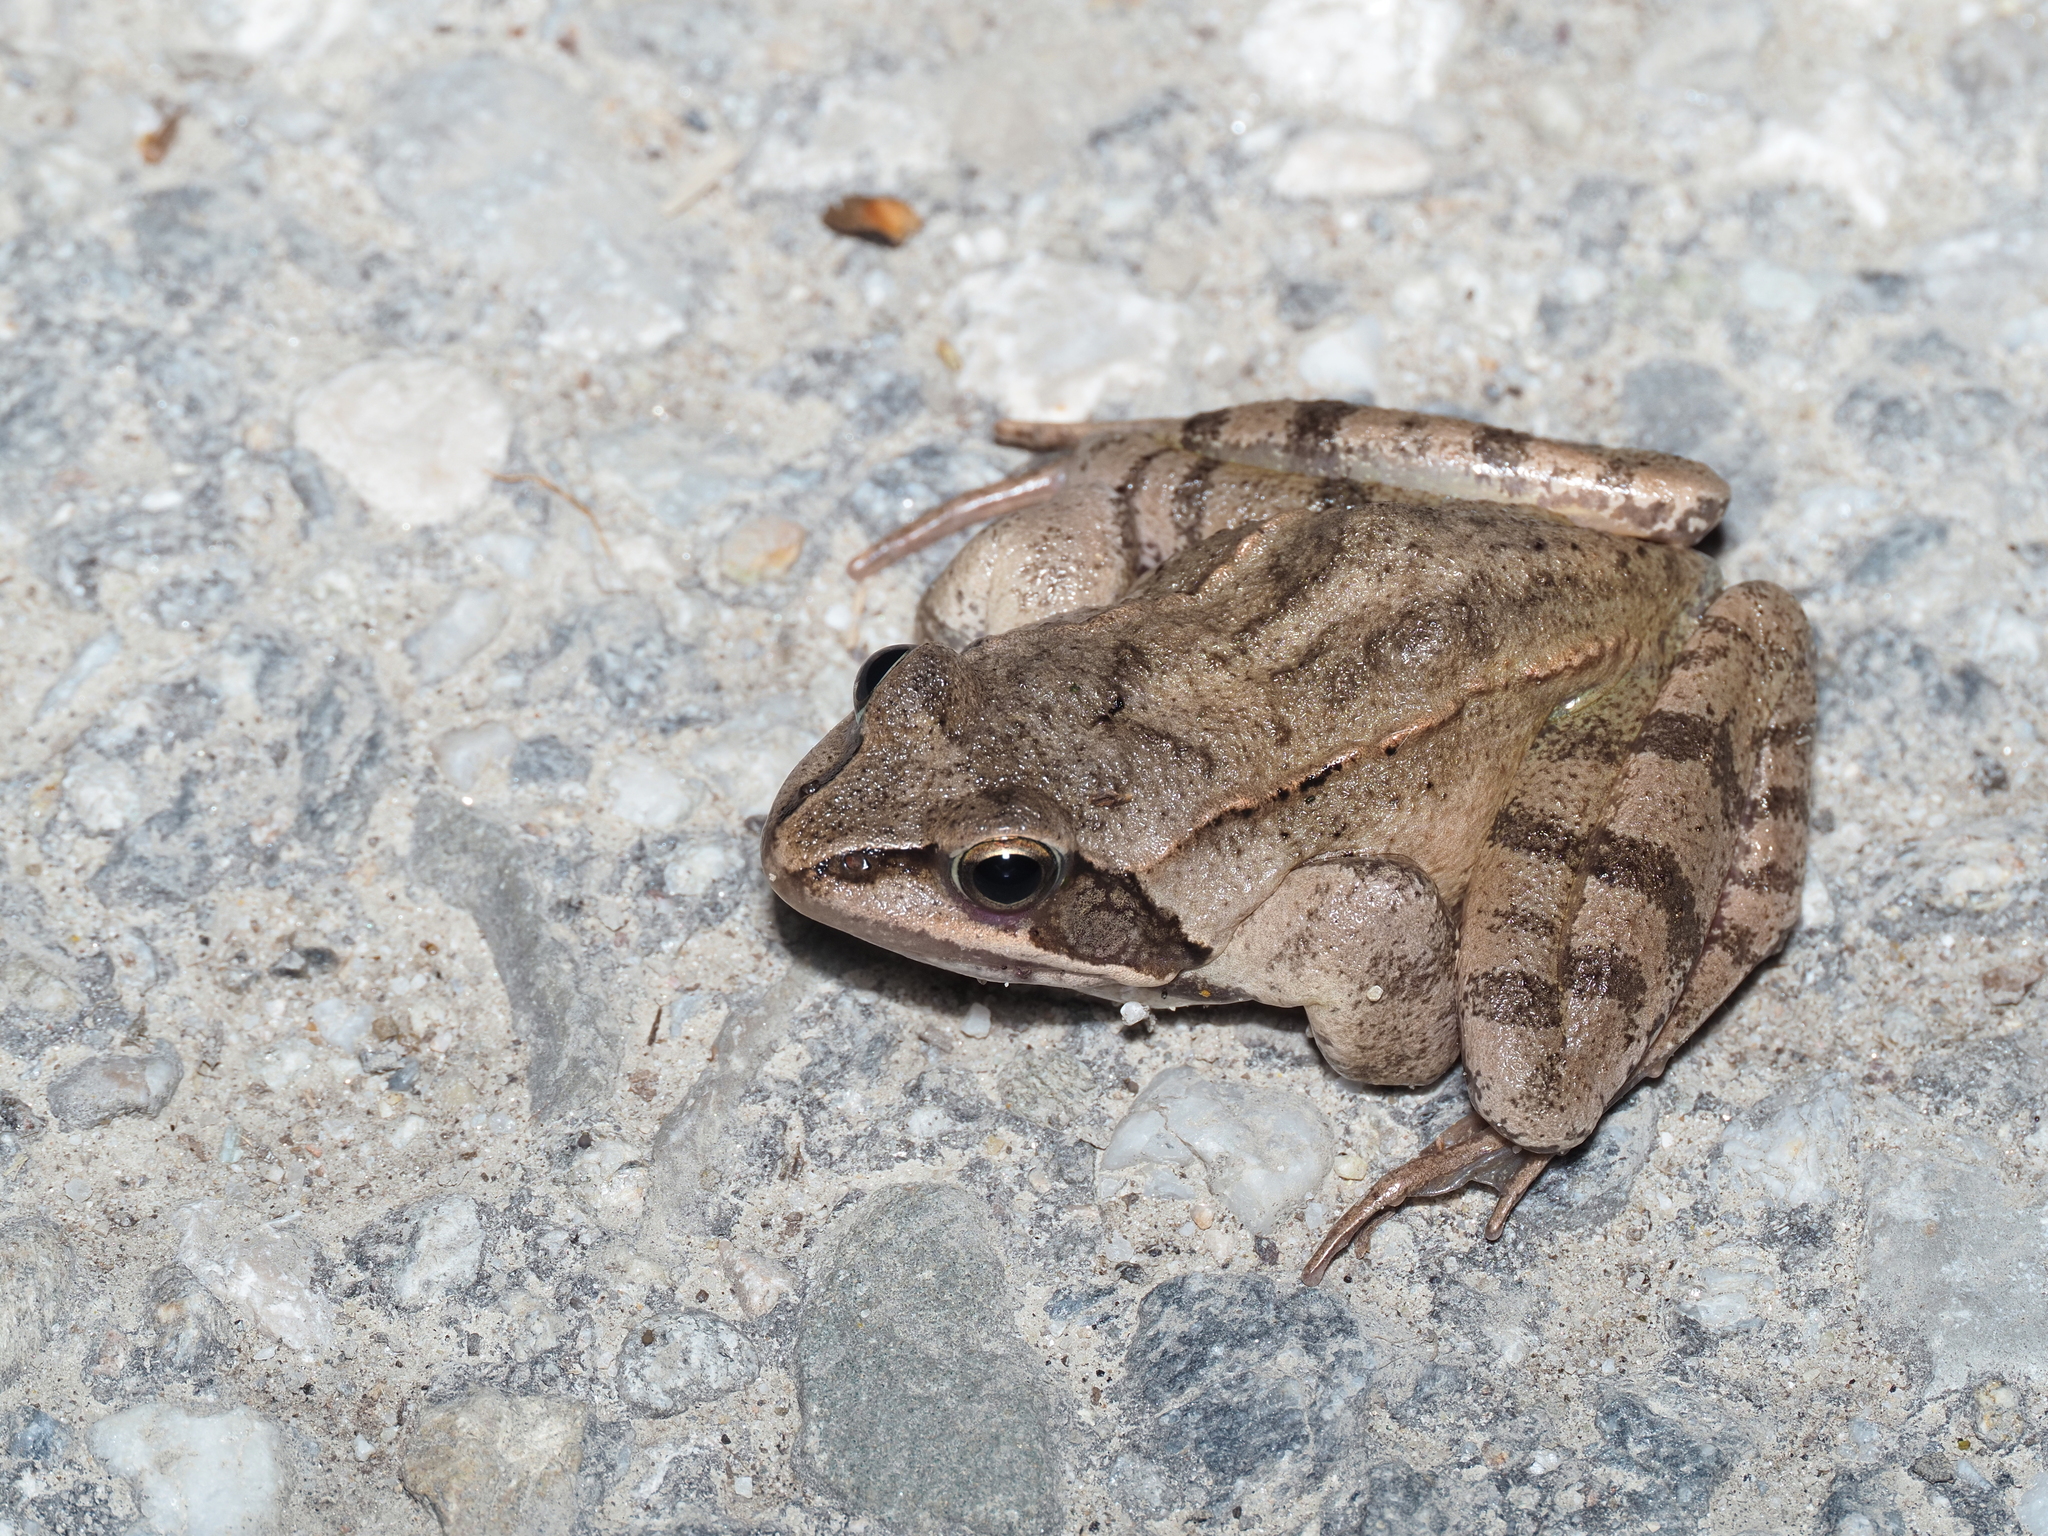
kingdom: Animalia
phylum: Chordata
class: Amphibia
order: Anura
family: Ranidae
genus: Rana
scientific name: Rana dalmatina
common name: Agile frog
